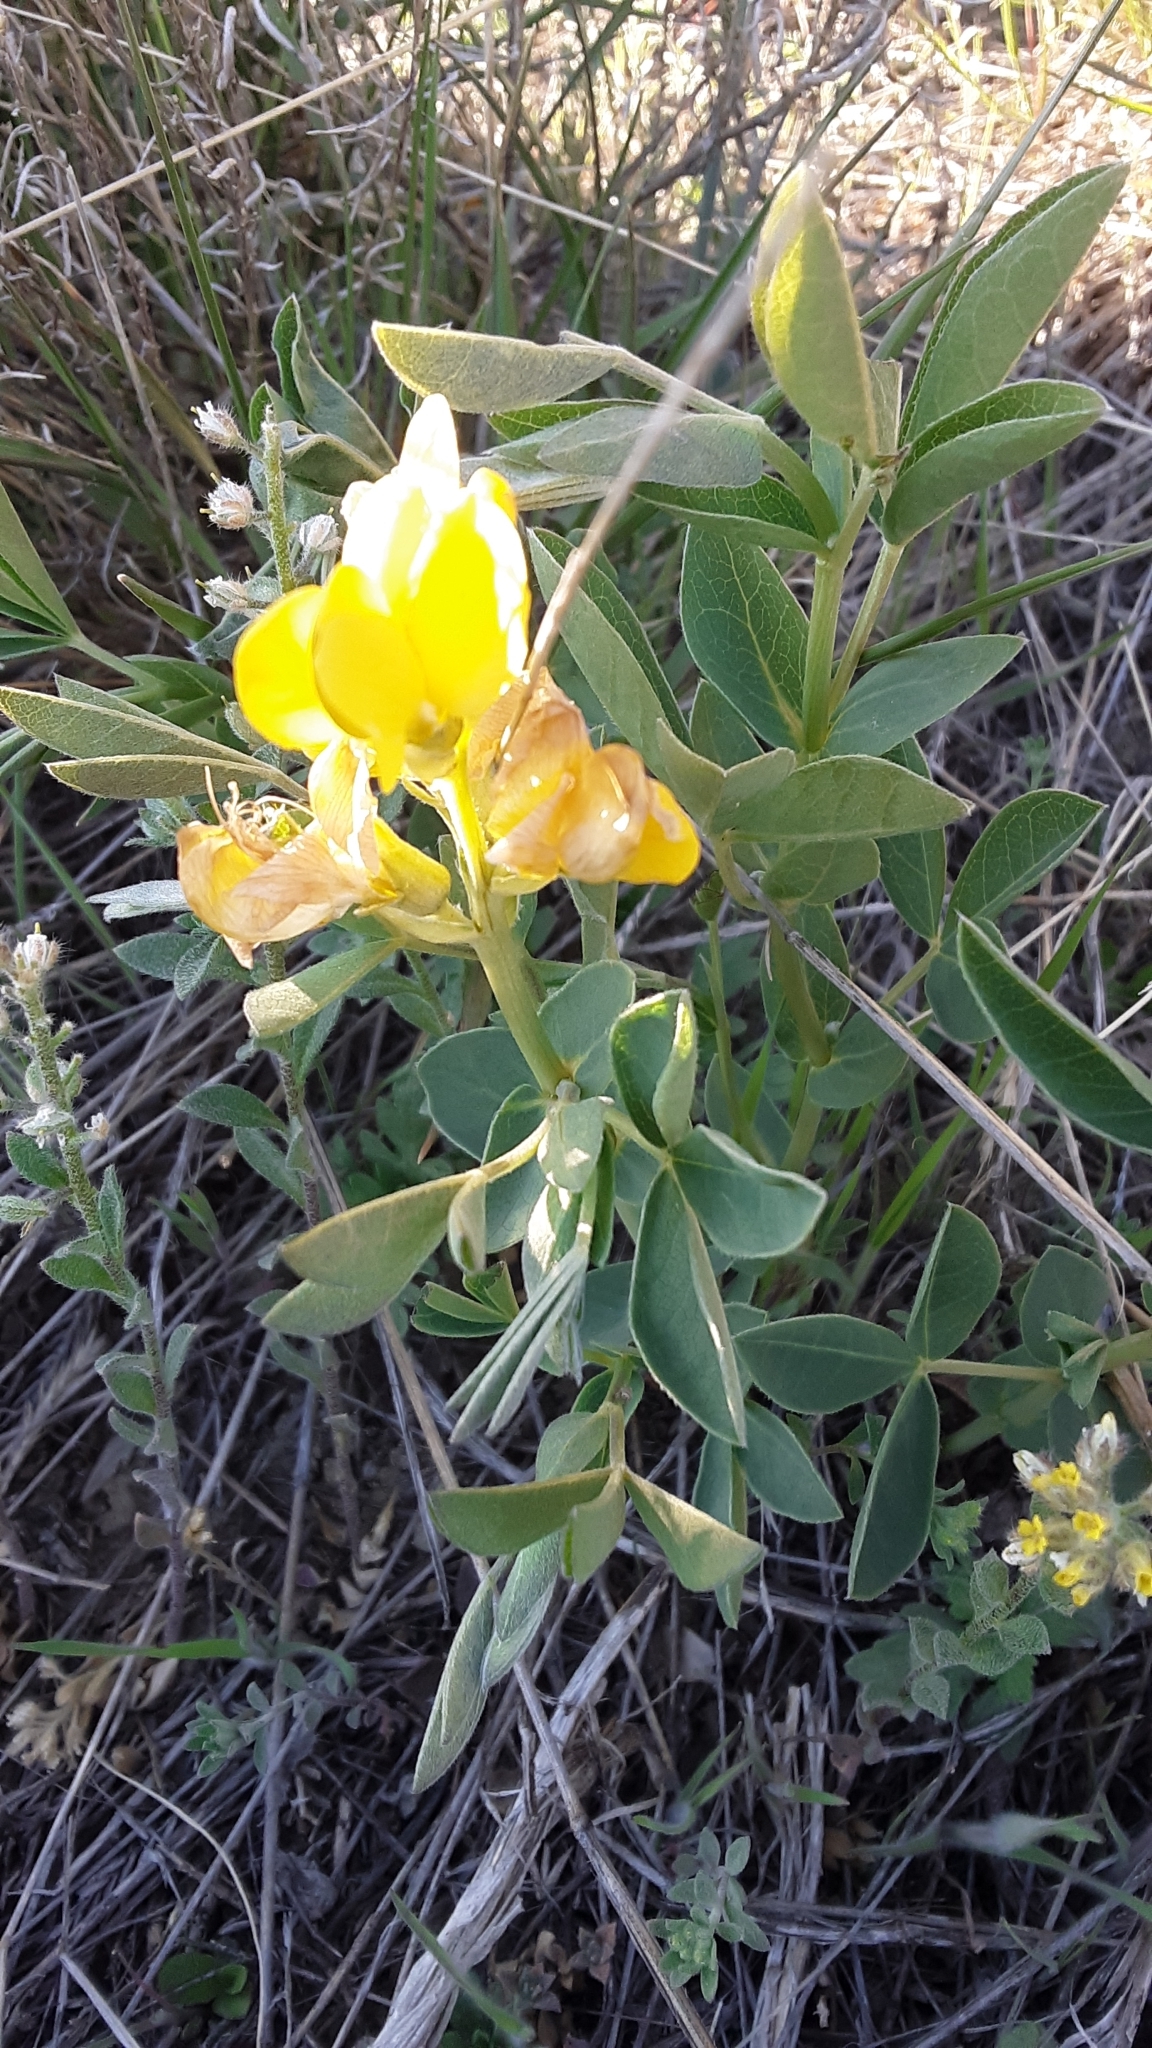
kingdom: Plantae
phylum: Tracheophyta
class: Magnoliopsida
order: Fabales
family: Fabaceae
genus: Thermopsis
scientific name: Thermopsis rhombifolia
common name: Circle-pod-pea
